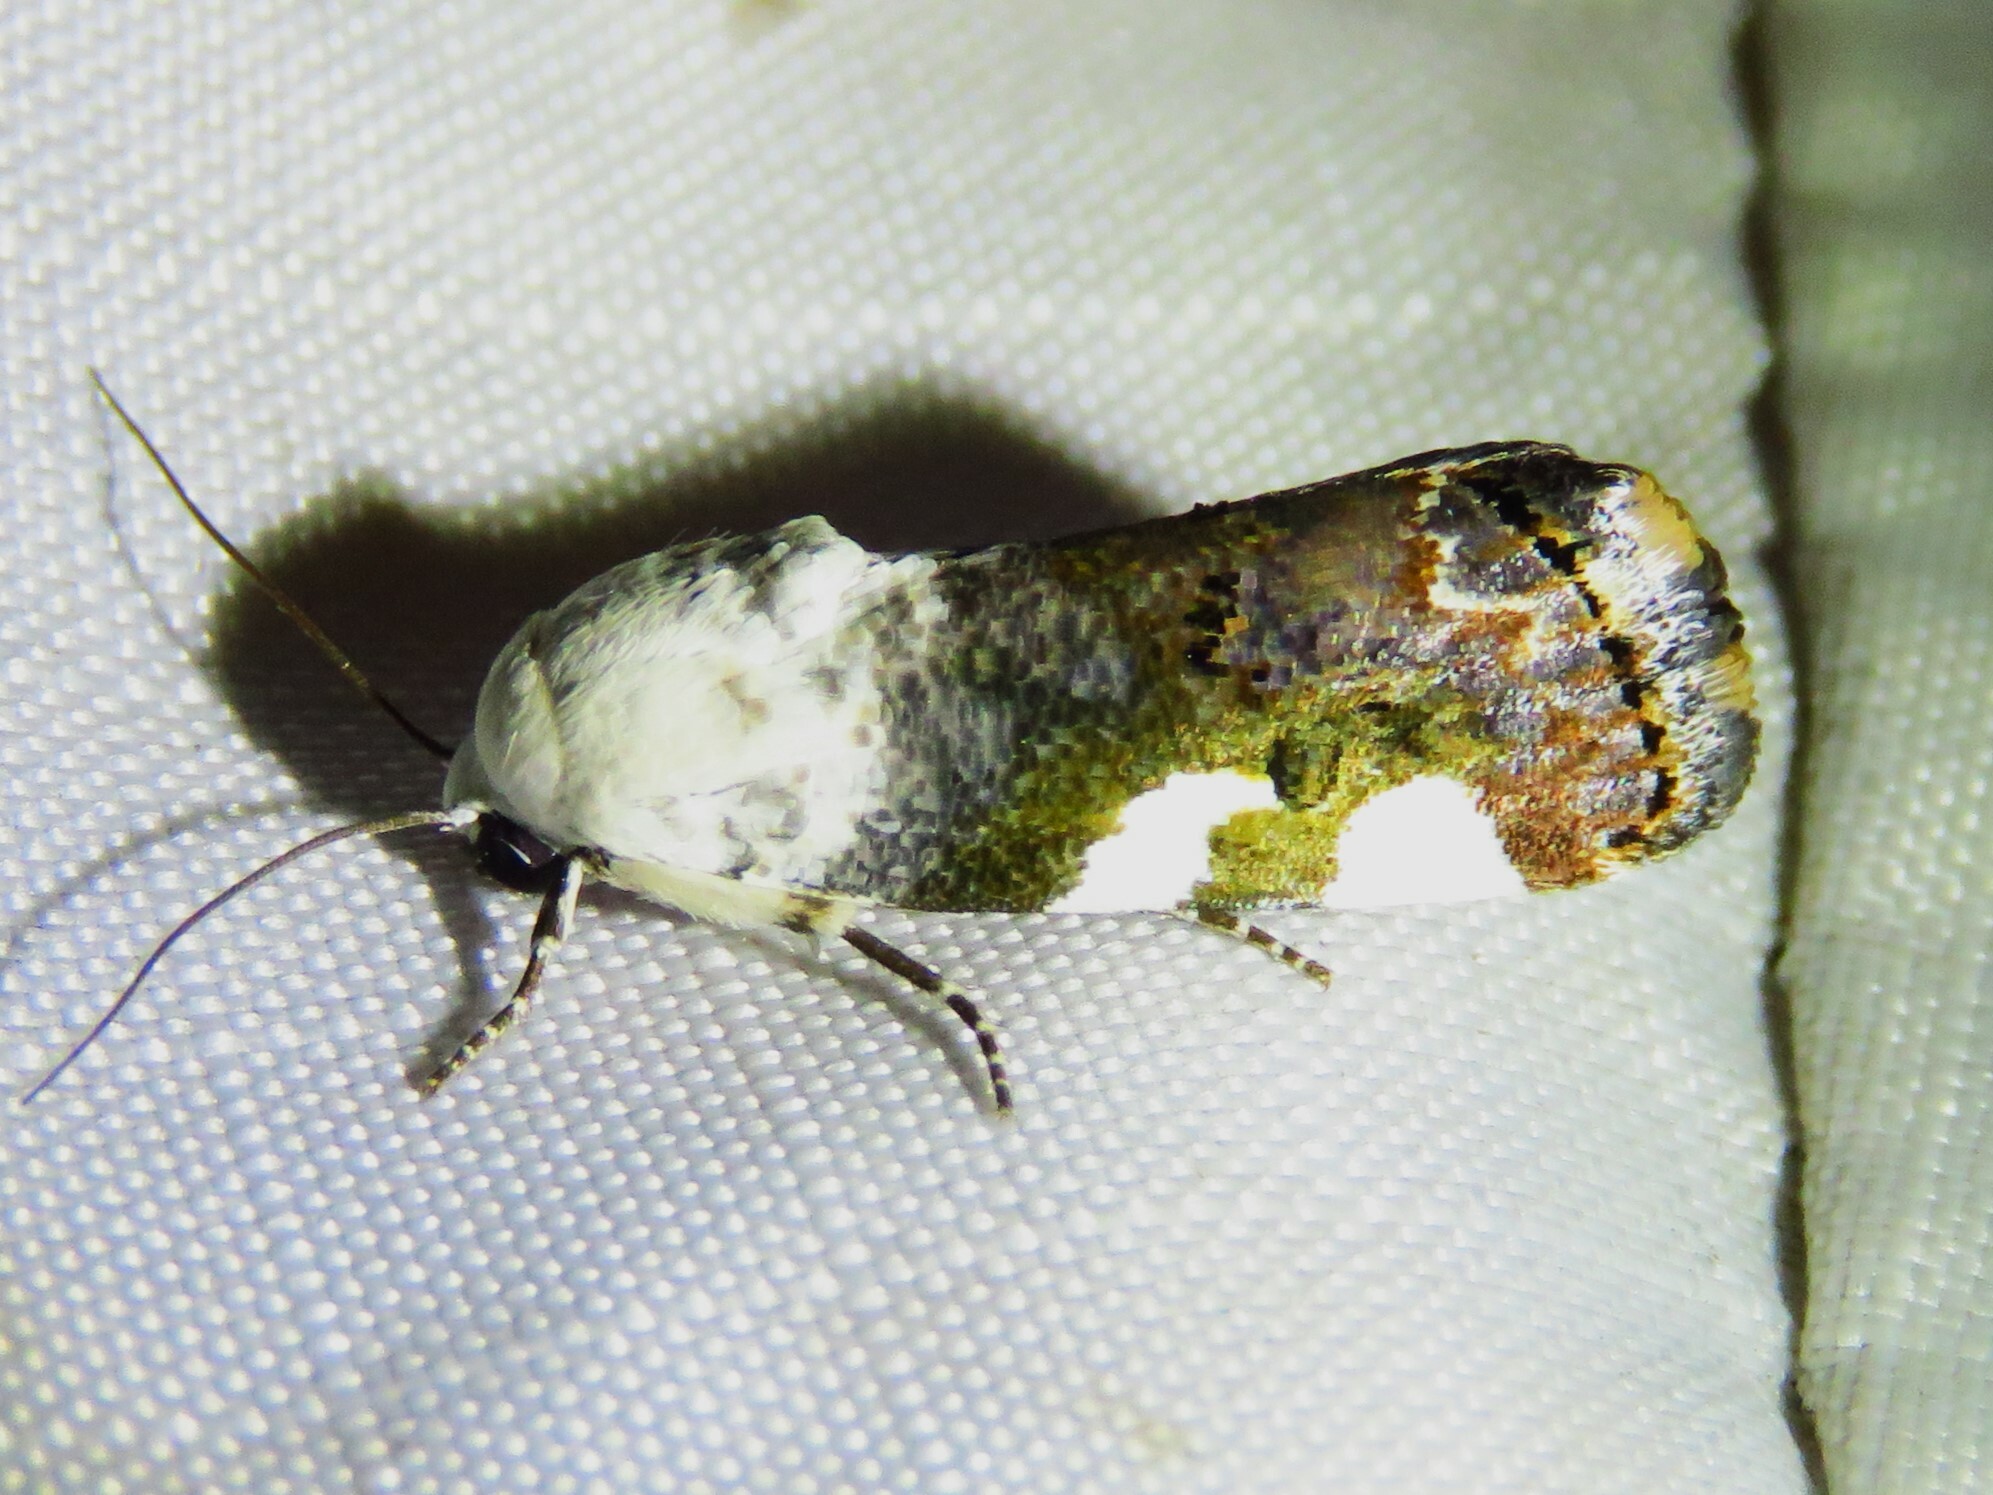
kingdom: Animalia
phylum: Arthropoda
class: Insecta
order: Lepidoptera
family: Noctuidae
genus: Acontia
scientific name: Acontia quadriplaga
